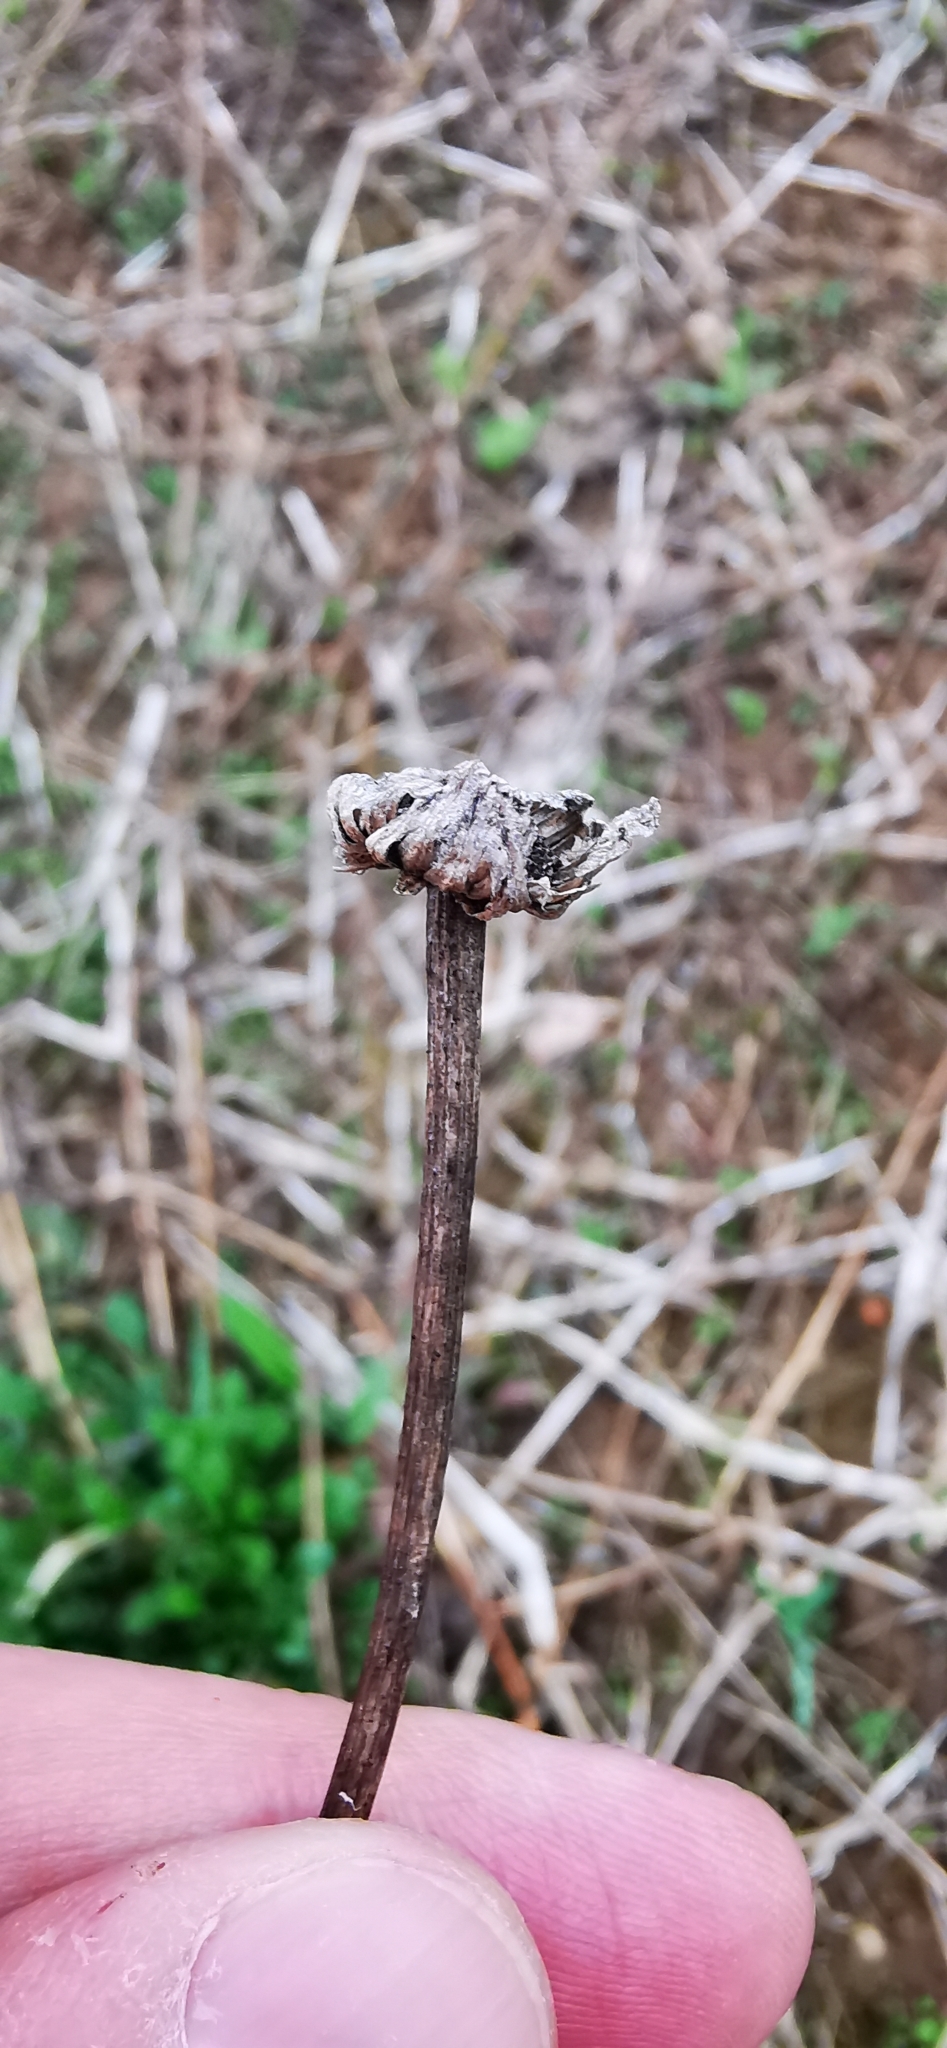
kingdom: Plantae
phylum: Tracheophyta
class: Magnoliopsida
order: Asterales
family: Asteraceae
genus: Leucanthemum
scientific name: Leucanthemum vulgare
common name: Oxeye daisy
